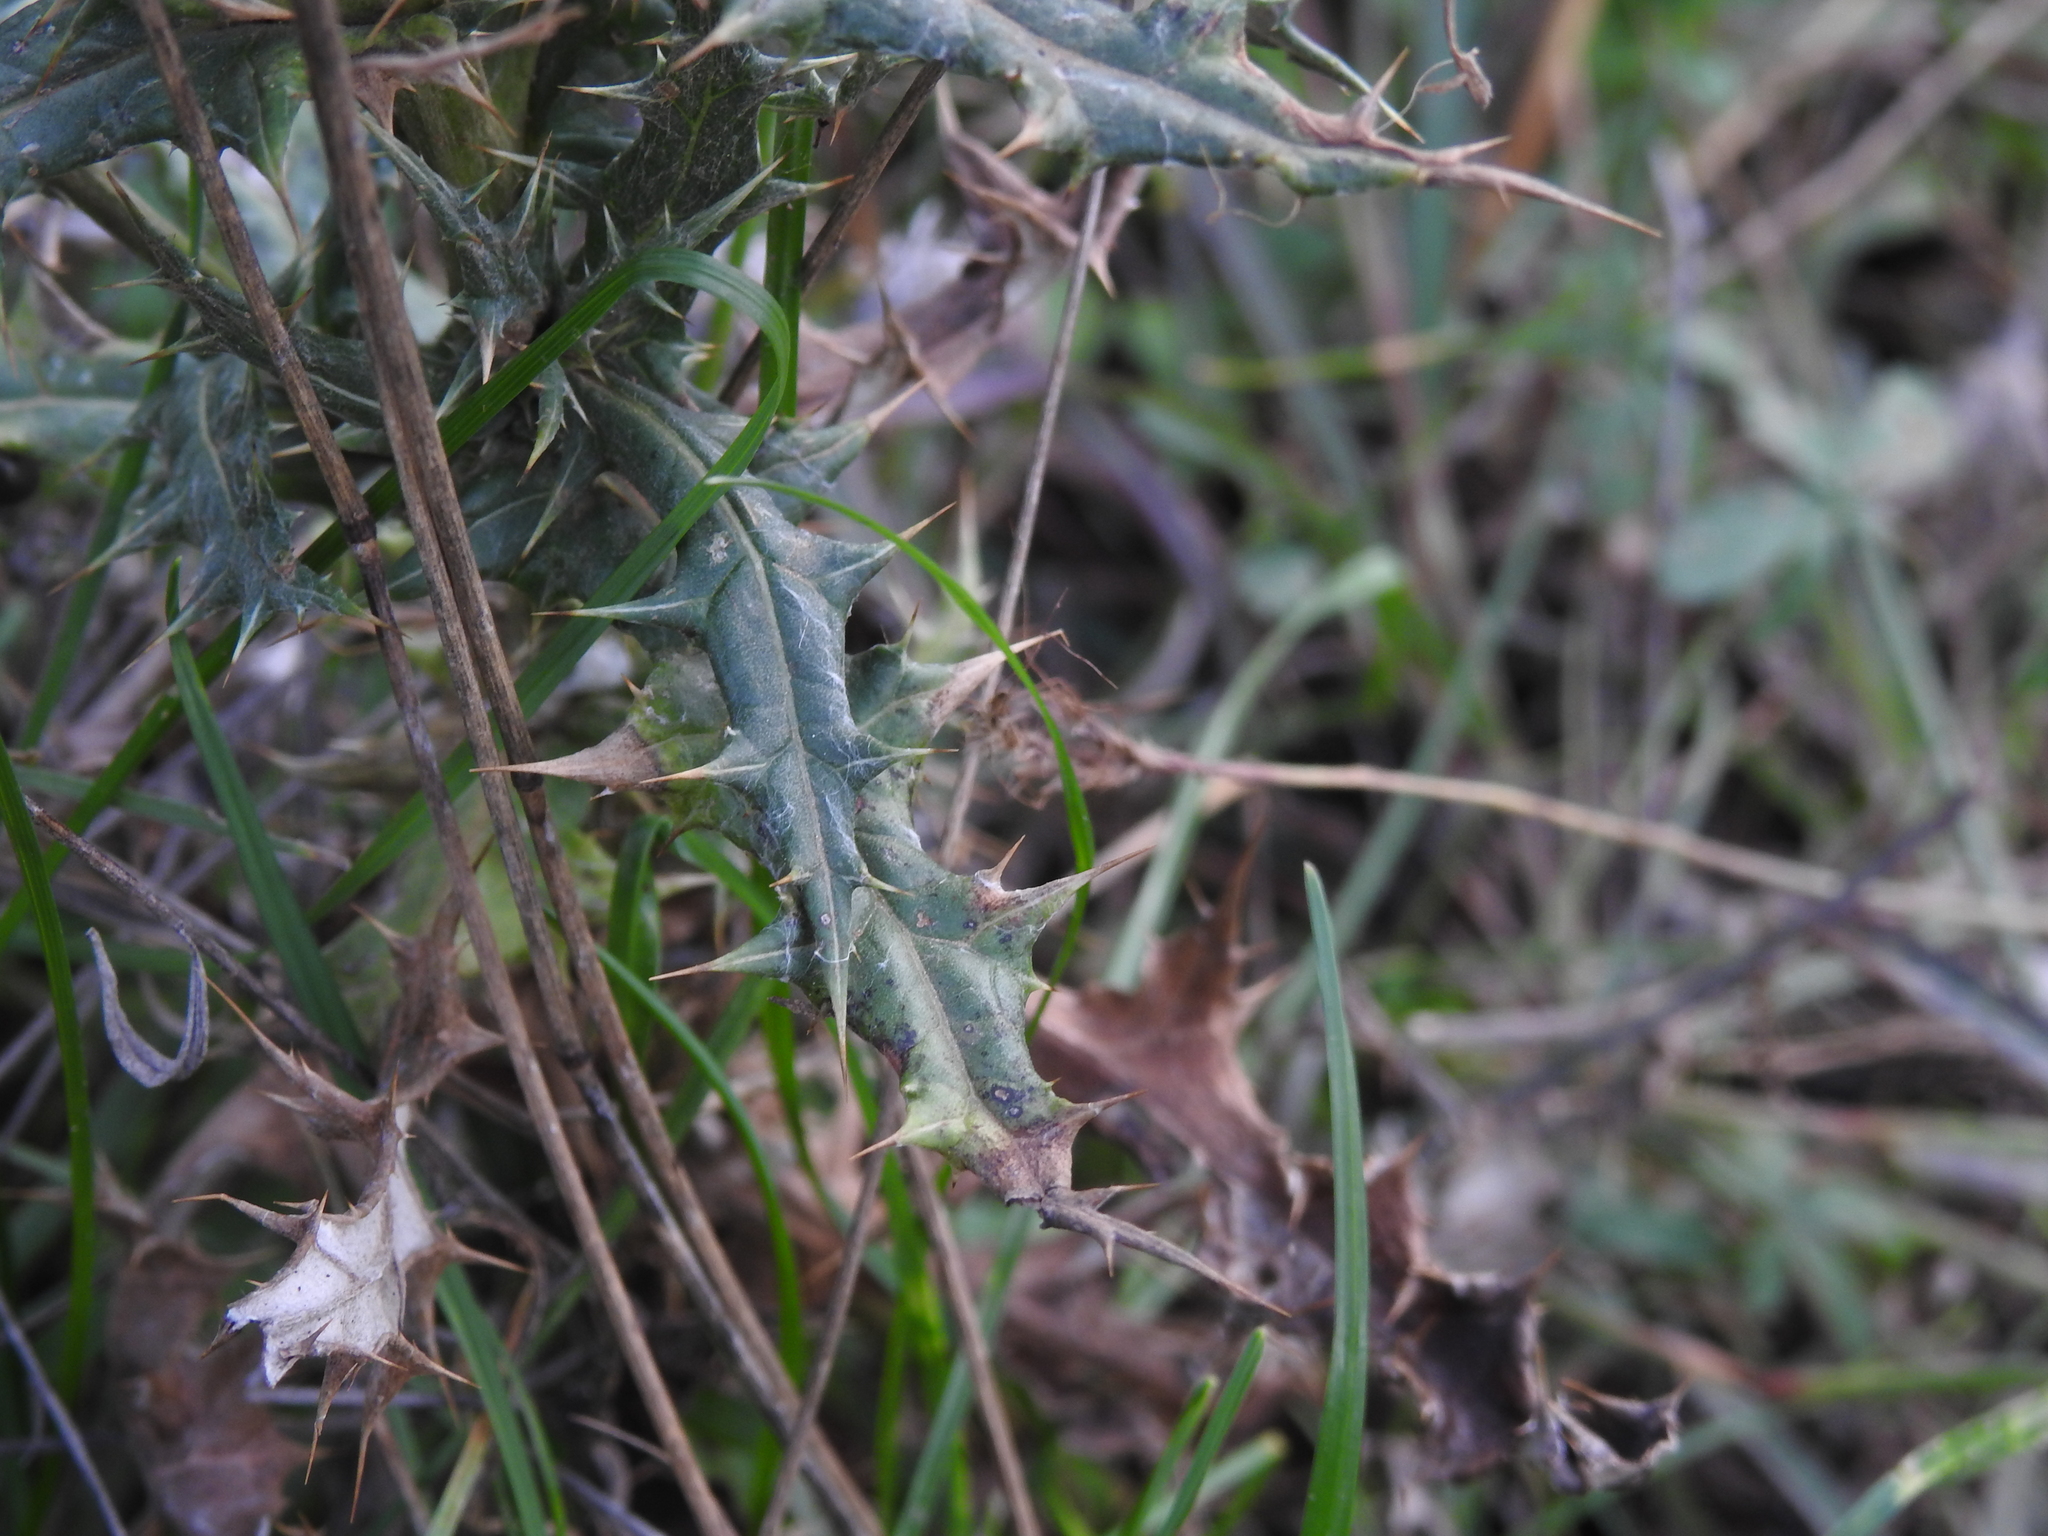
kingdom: Plantae
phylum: Tracheophyta
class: Magnoliopsida
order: Asterales
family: Asteraceae
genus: Echinops
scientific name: Echinops ritro
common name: Globe thistle
